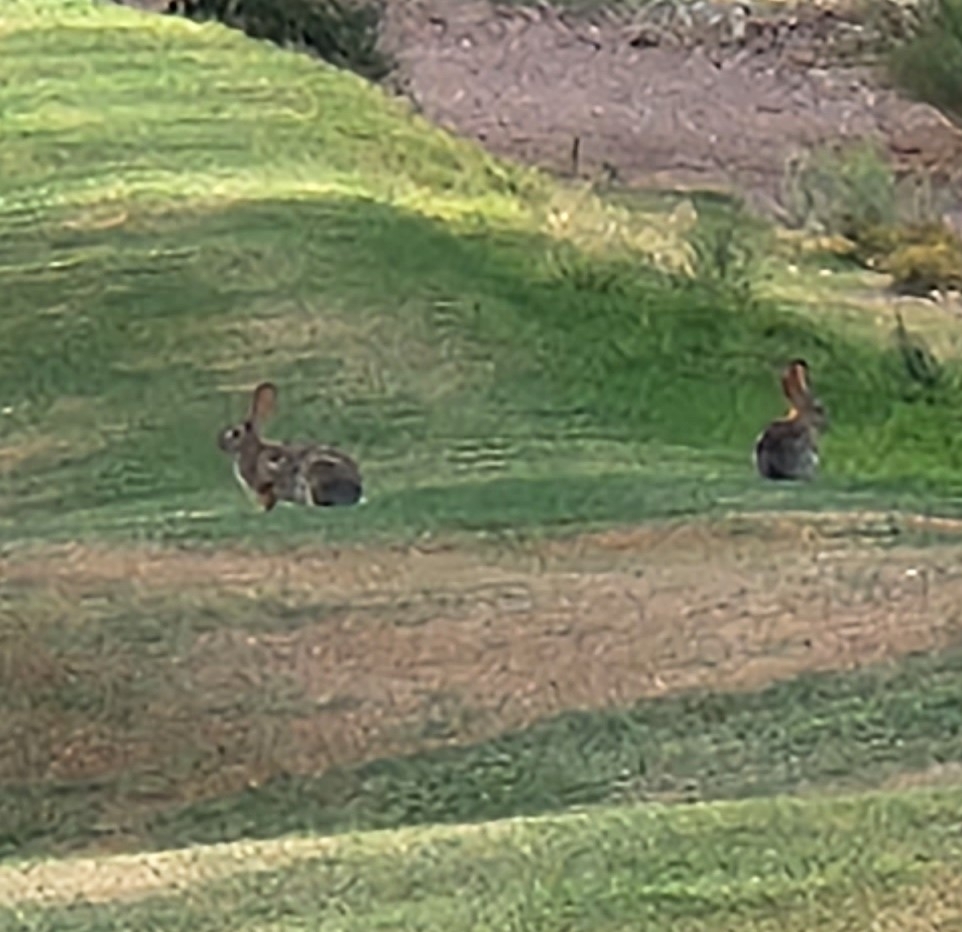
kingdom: Animalia
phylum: Chordata
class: Mammalia
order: Lagomorpha
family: Leporidae
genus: Sylvilagus
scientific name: Sylvilagus audubonii
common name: Desert cottontail
